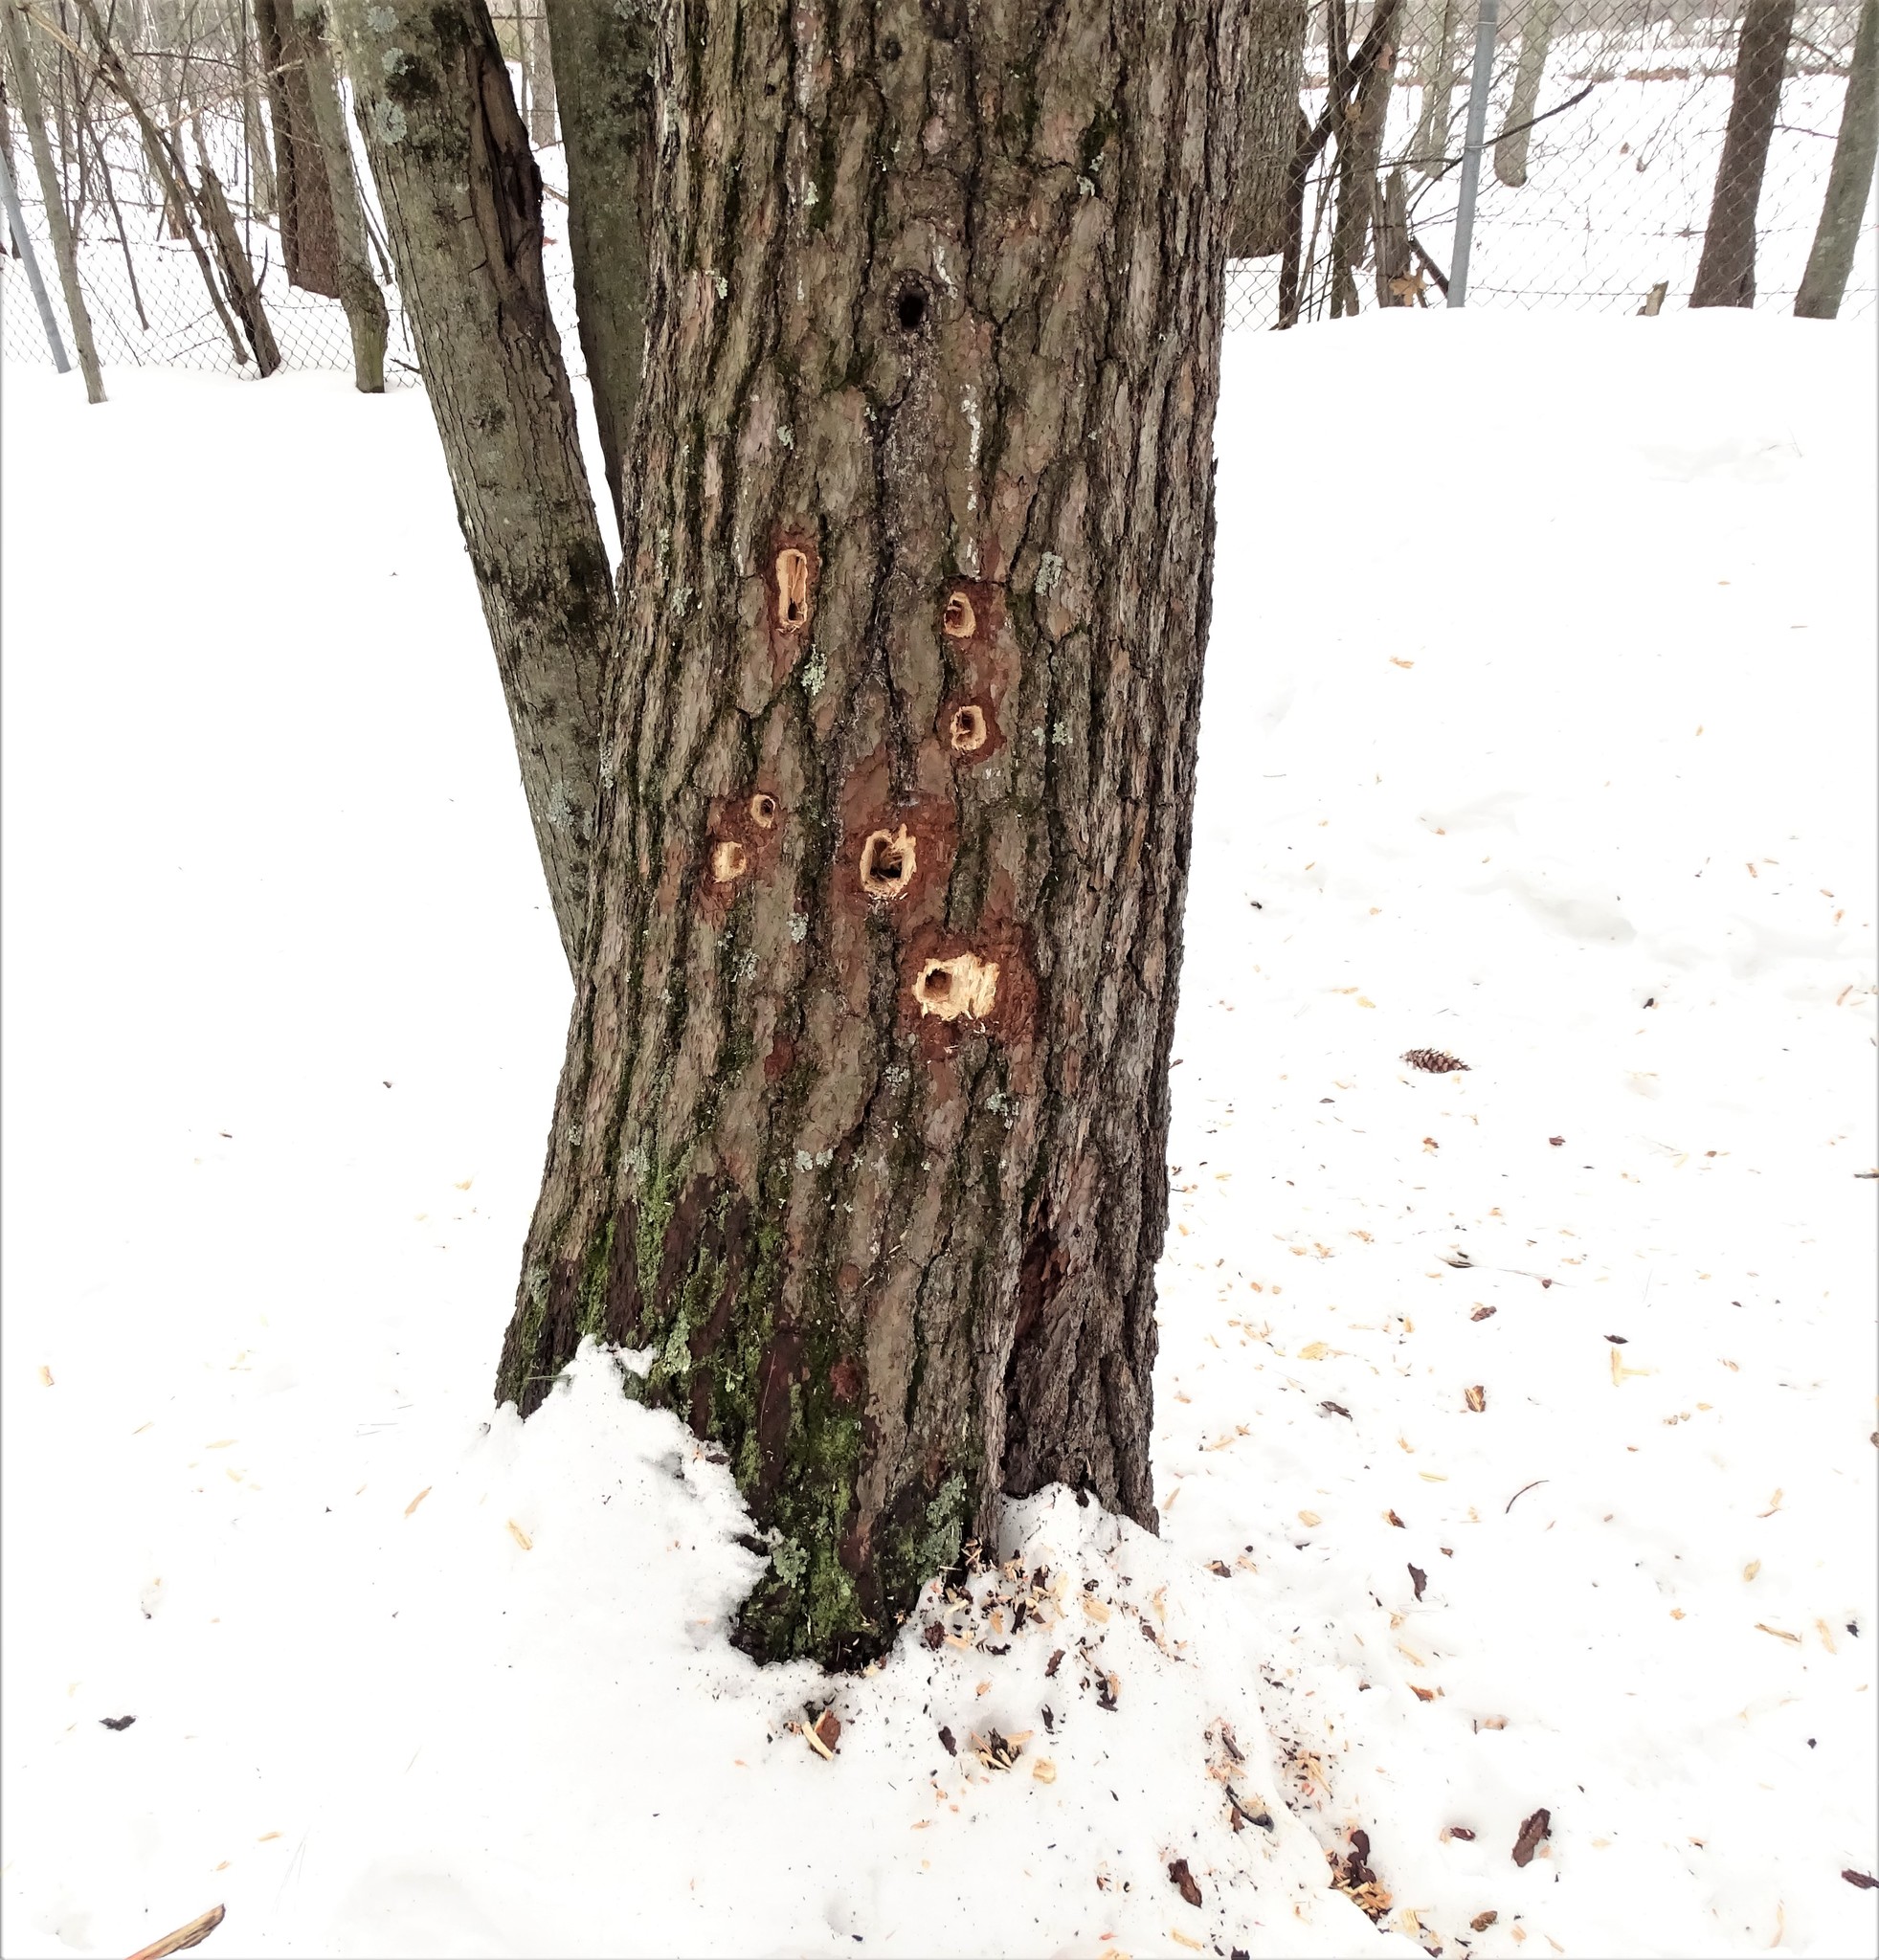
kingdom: Animalia
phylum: Chordata
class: Aves
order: Piciformes
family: Picidae
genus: Dryocopus
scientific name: Dryocopus pileatus
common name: Pileated woodpecker
